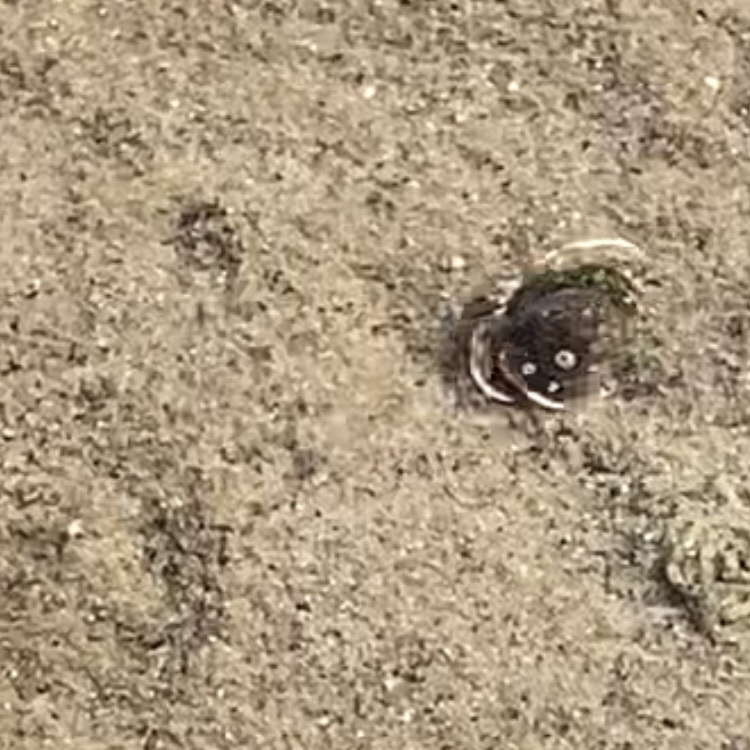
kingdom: Animalia
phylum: Arthropoda
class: Malacostraca
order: Decapoda
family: Paguridae
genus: Pagurus
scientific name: Pagurus longicarpus
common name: Long-armed hermit crab
